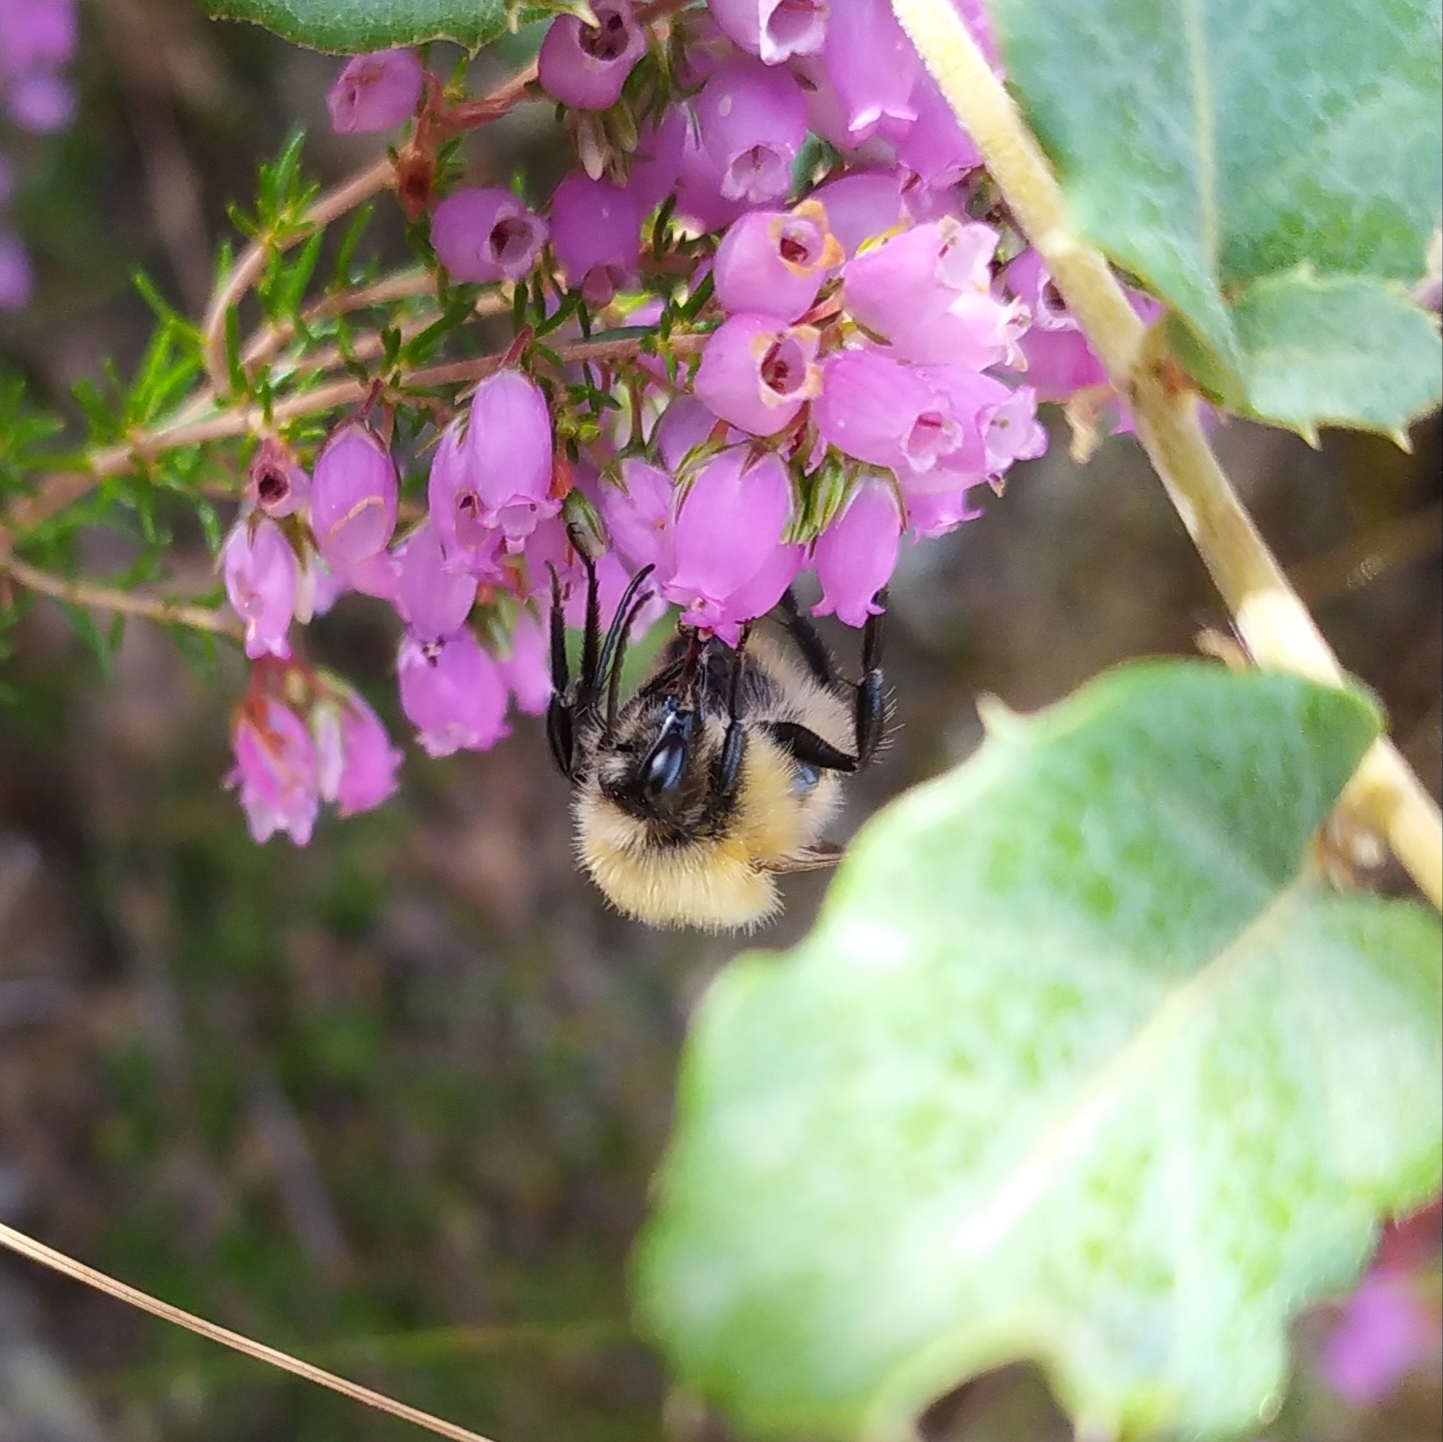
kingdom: Animalia
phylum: Arthropoda
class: Insecta
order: Hymenoptera
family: Apidae
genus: Bombus
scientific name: Bombus pascuorum
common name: Common carder bee
